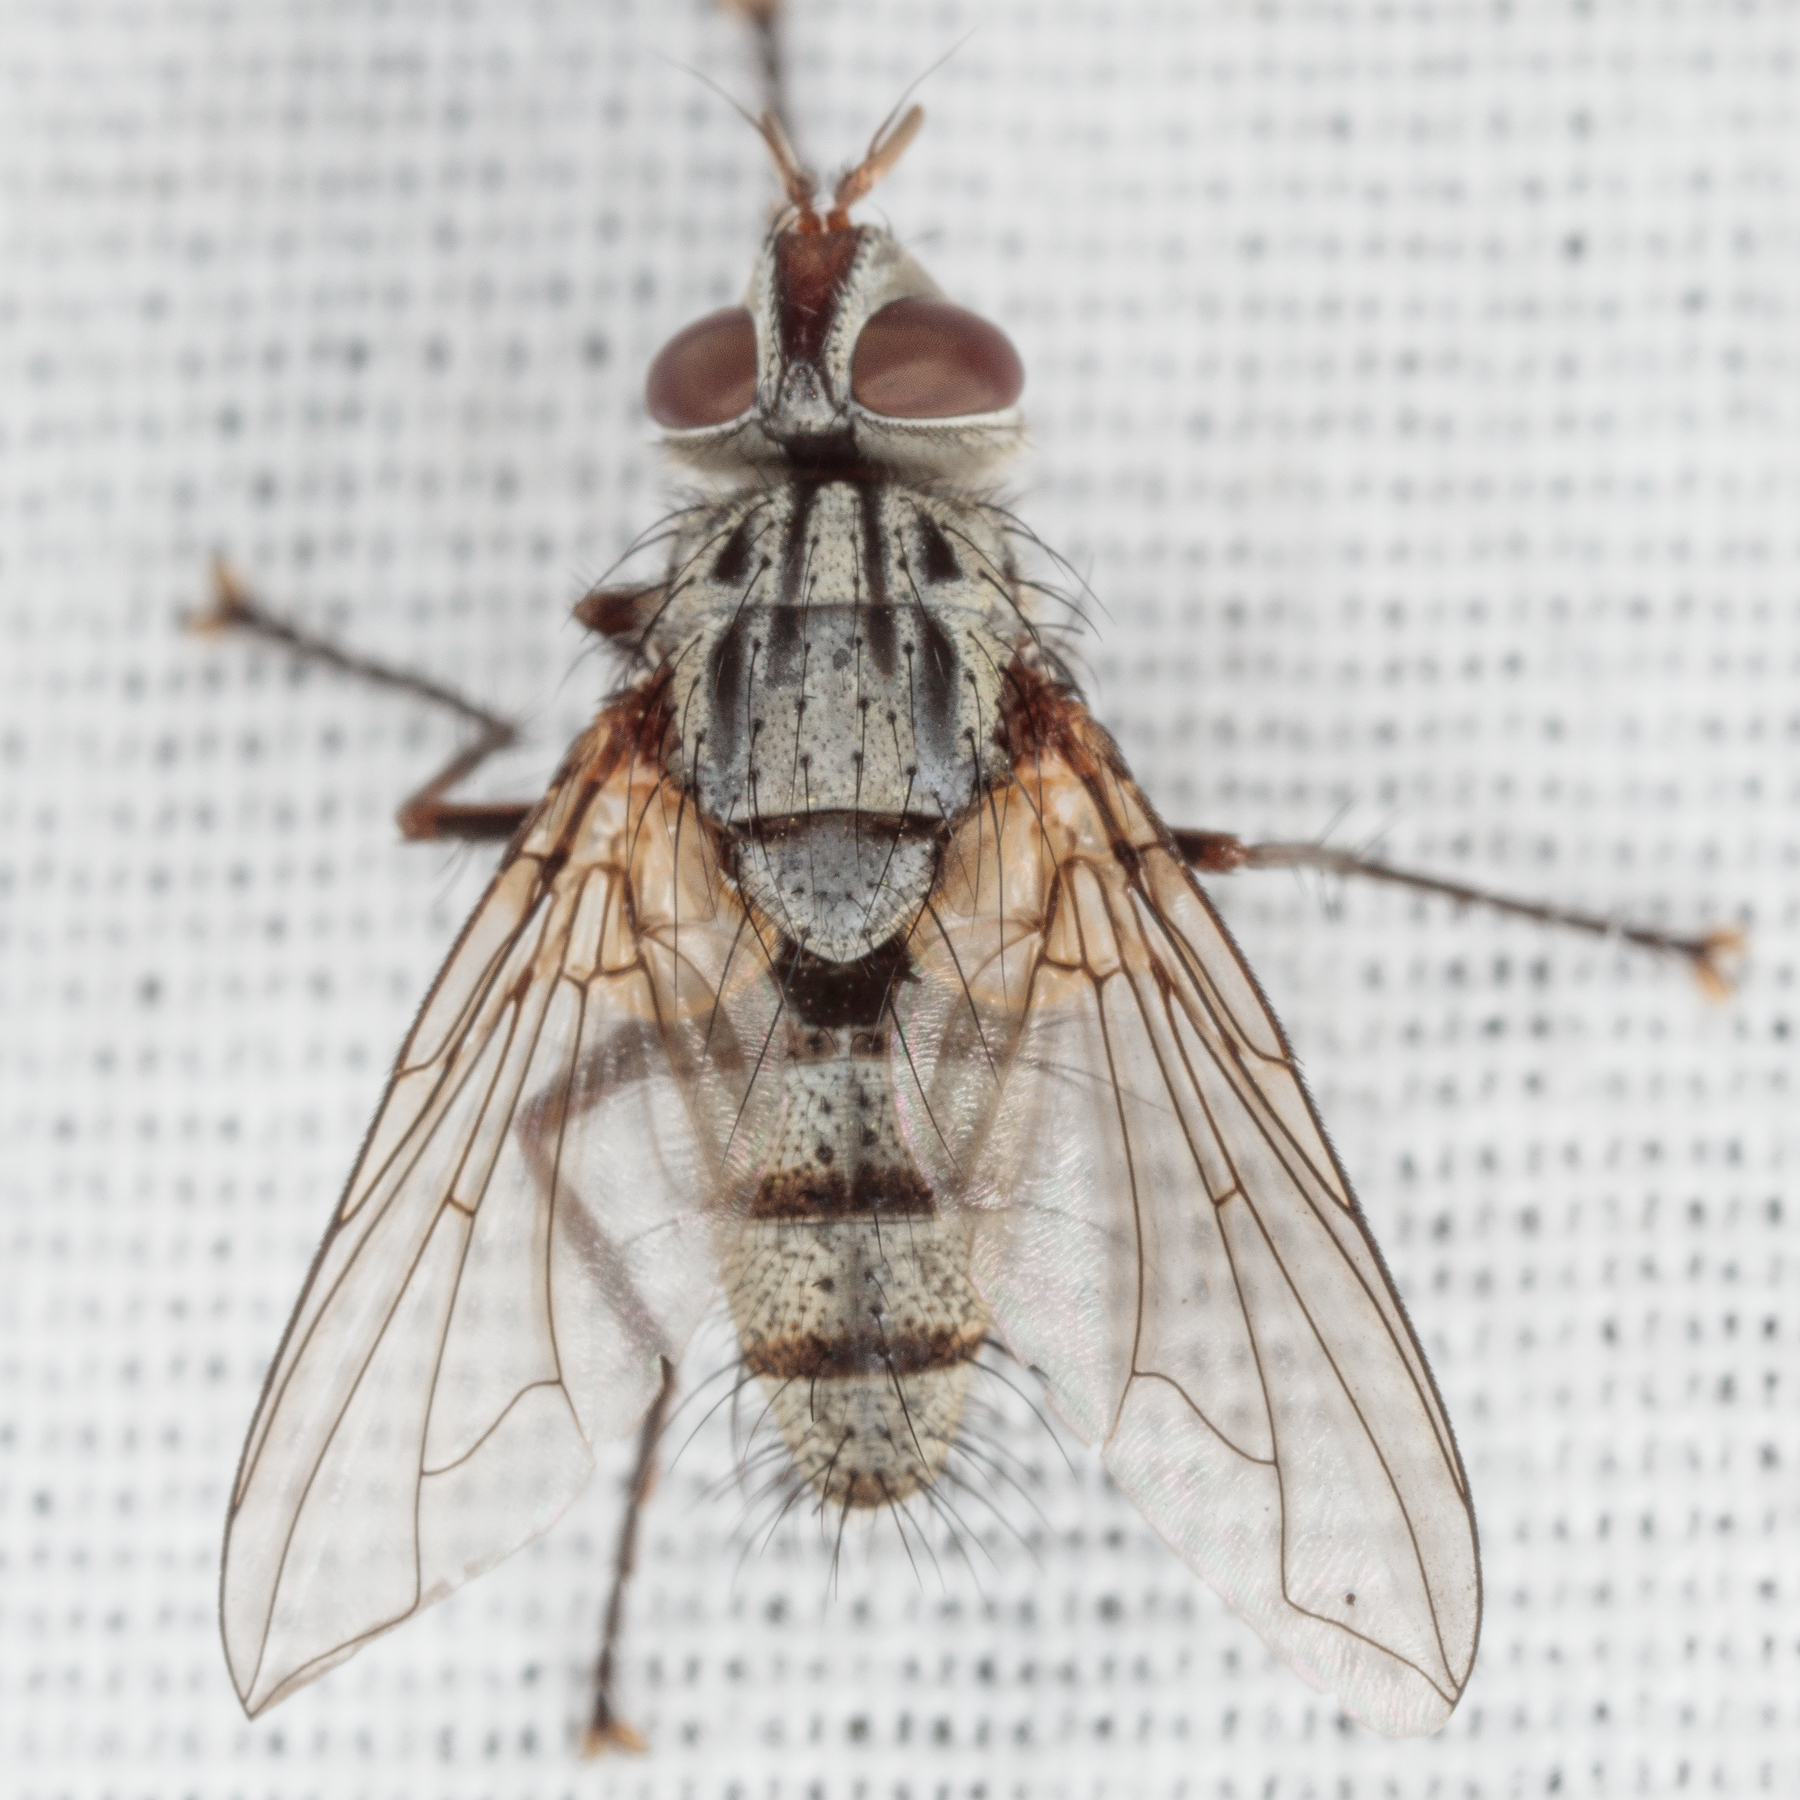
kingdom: Animalia
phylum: Arthropoda
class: Insecta
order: Diptera
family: Tachinidae
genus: Cryptomeigenia
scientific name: Cryptomeigenia
